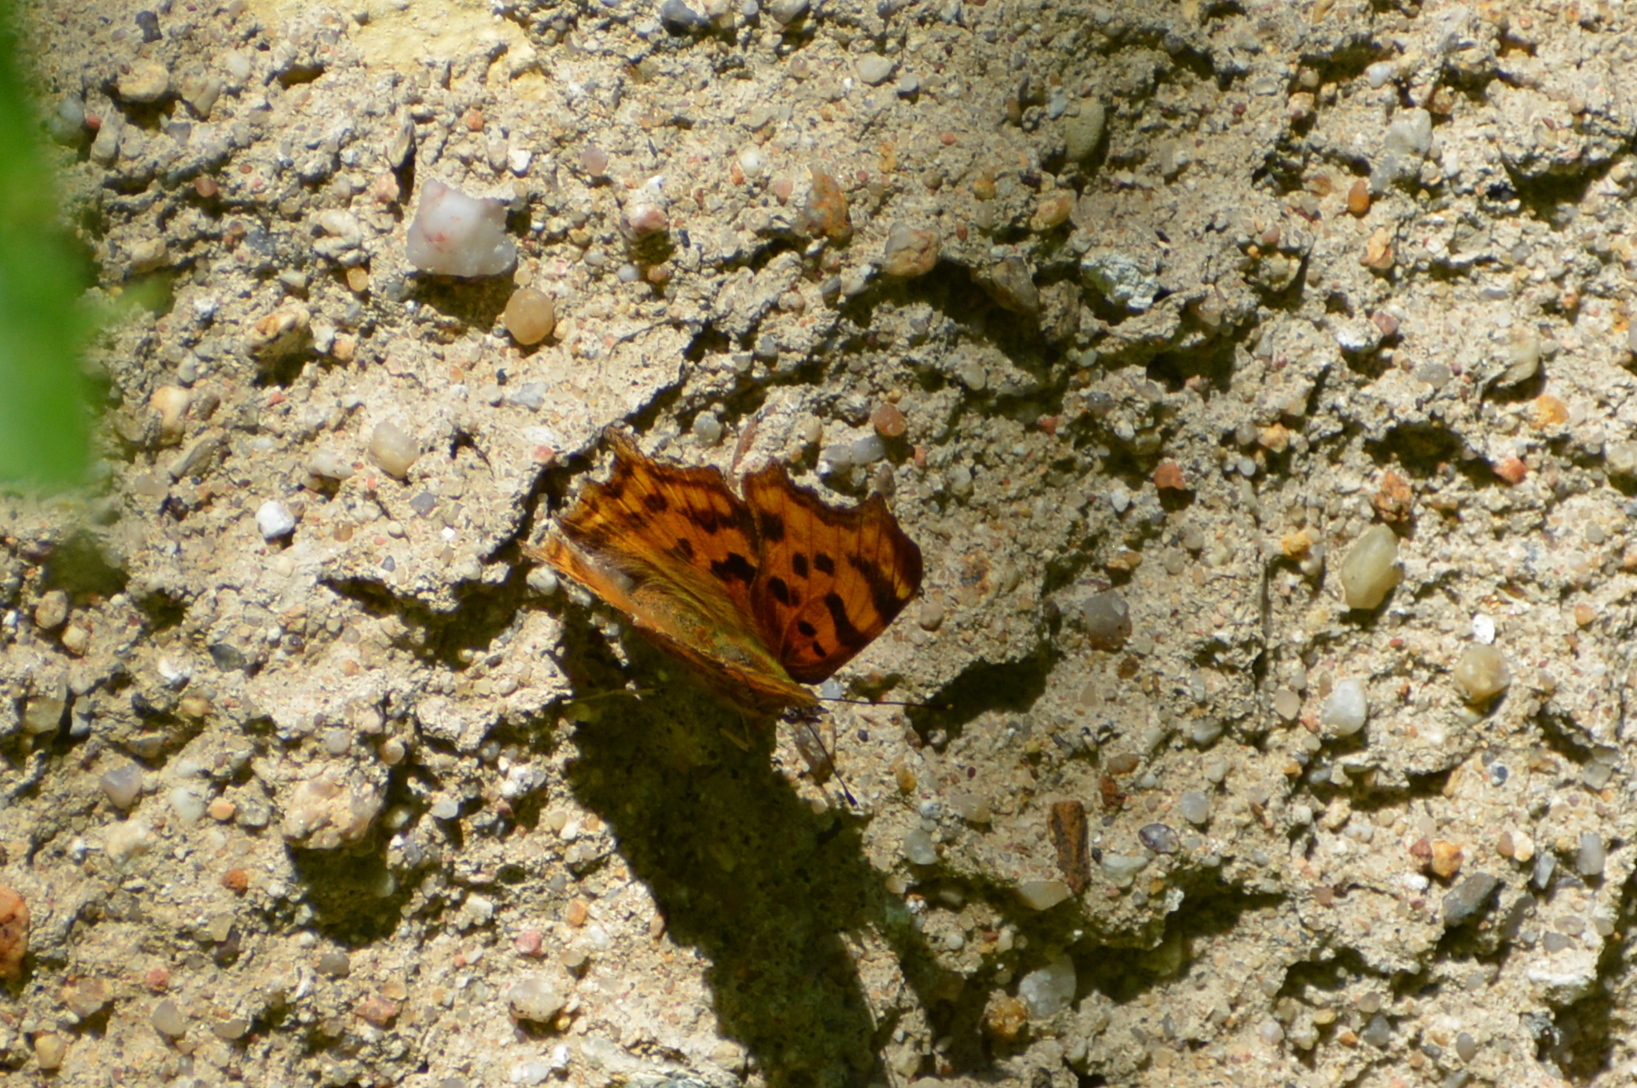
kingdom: Animalia
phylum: Arthropoda
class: Insecta
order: Lepidoptera
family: Nymphalidae
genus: Polygonia
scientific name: Polygonia c-album
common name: Comma
